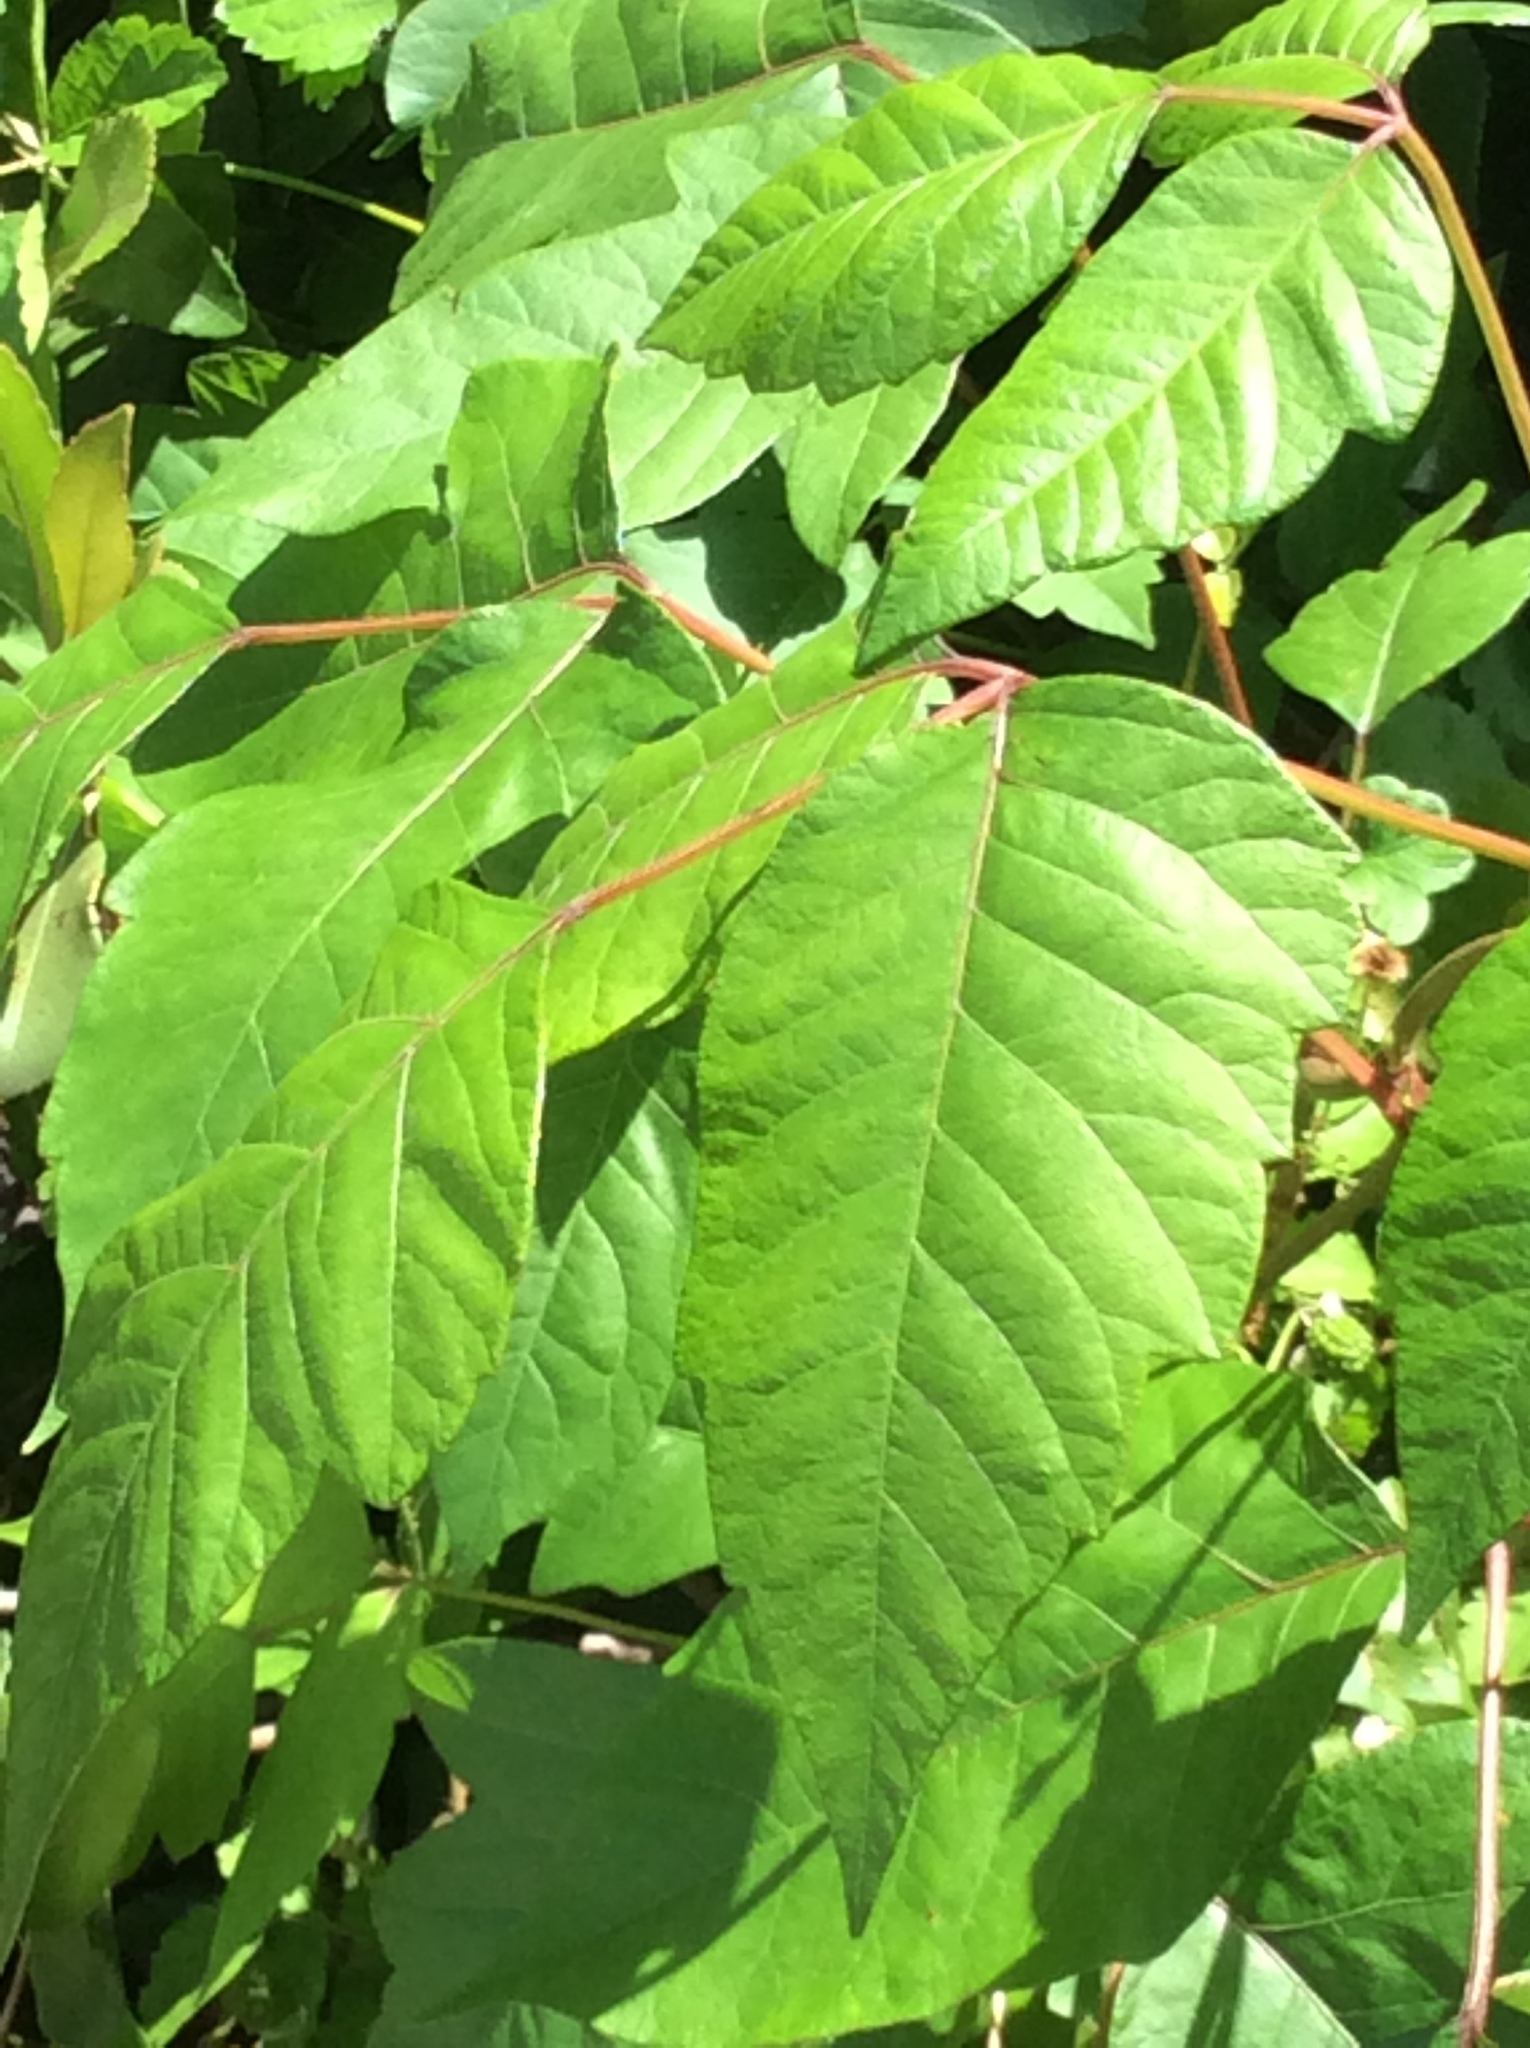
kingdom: Plantae
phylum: Tracheophyta
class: Magnoliopsida
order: Sapindales
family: Anacardiaceae
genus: Toxicodendron
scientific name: Toxicodendron radicans
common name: Poison ivy
